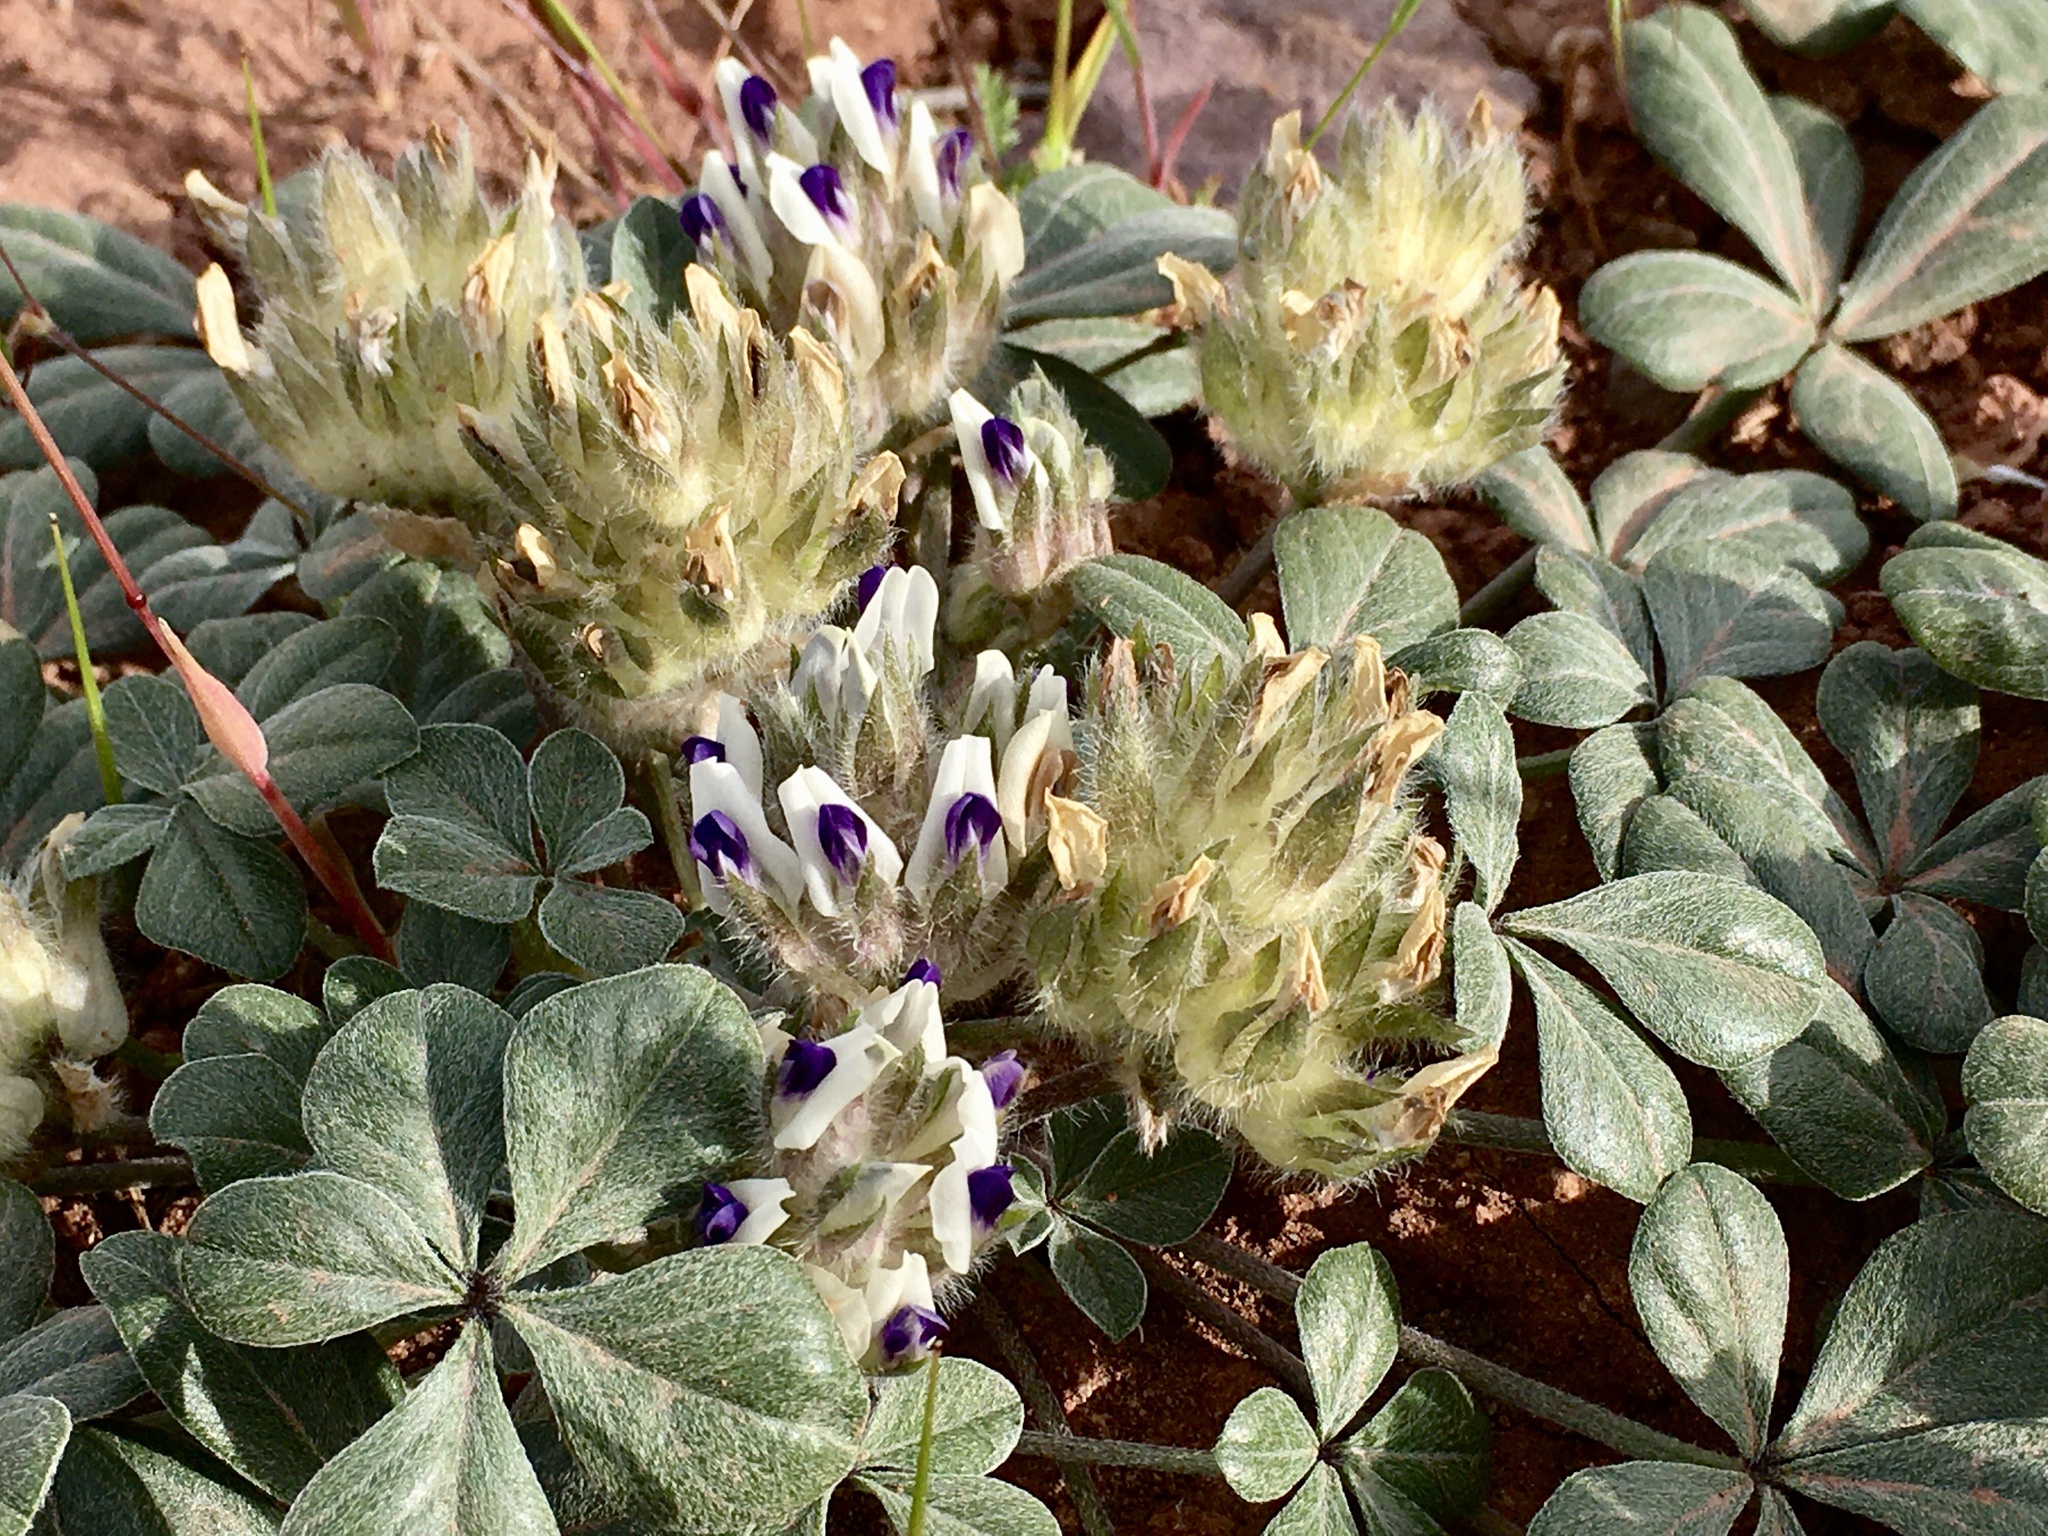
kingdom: Plantae
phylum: Tracheophyta
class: Magnoliopsida
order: Fabales
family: Fabaceae
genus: Pediomelum
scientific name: Pediomelum megalanthum
